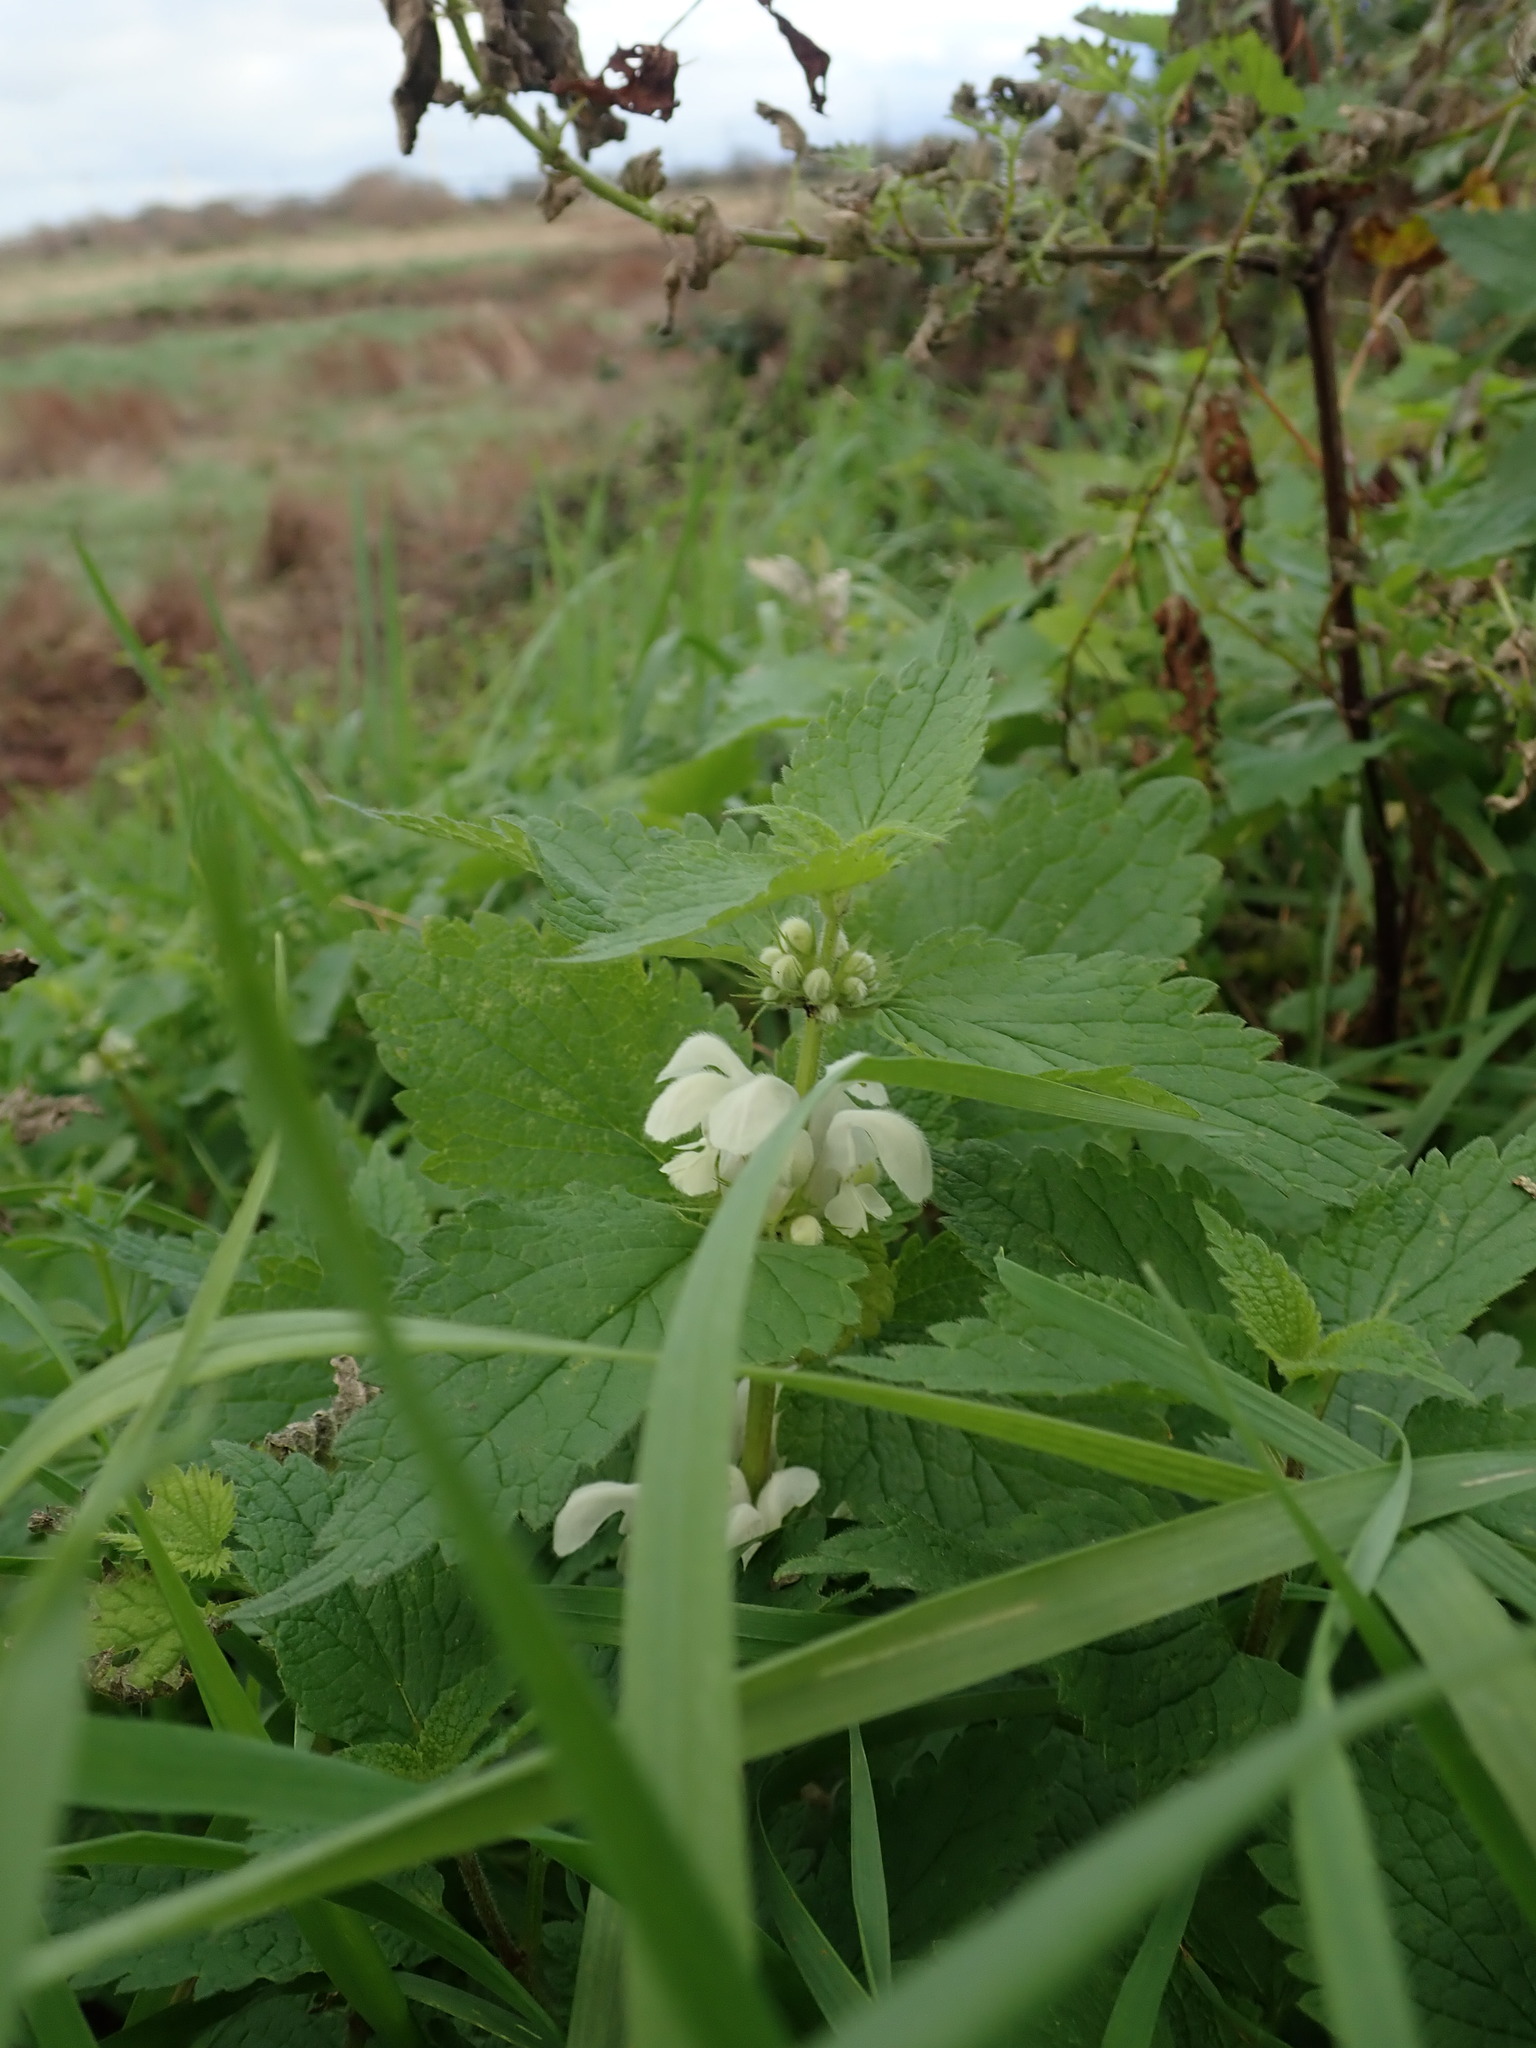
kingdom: Plantae
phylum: Tracheophyta
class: Magnoliopsida
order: Lamiales
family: Lamiaceae
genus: Lamium
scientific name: Lamium album
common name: White dead-nettle
